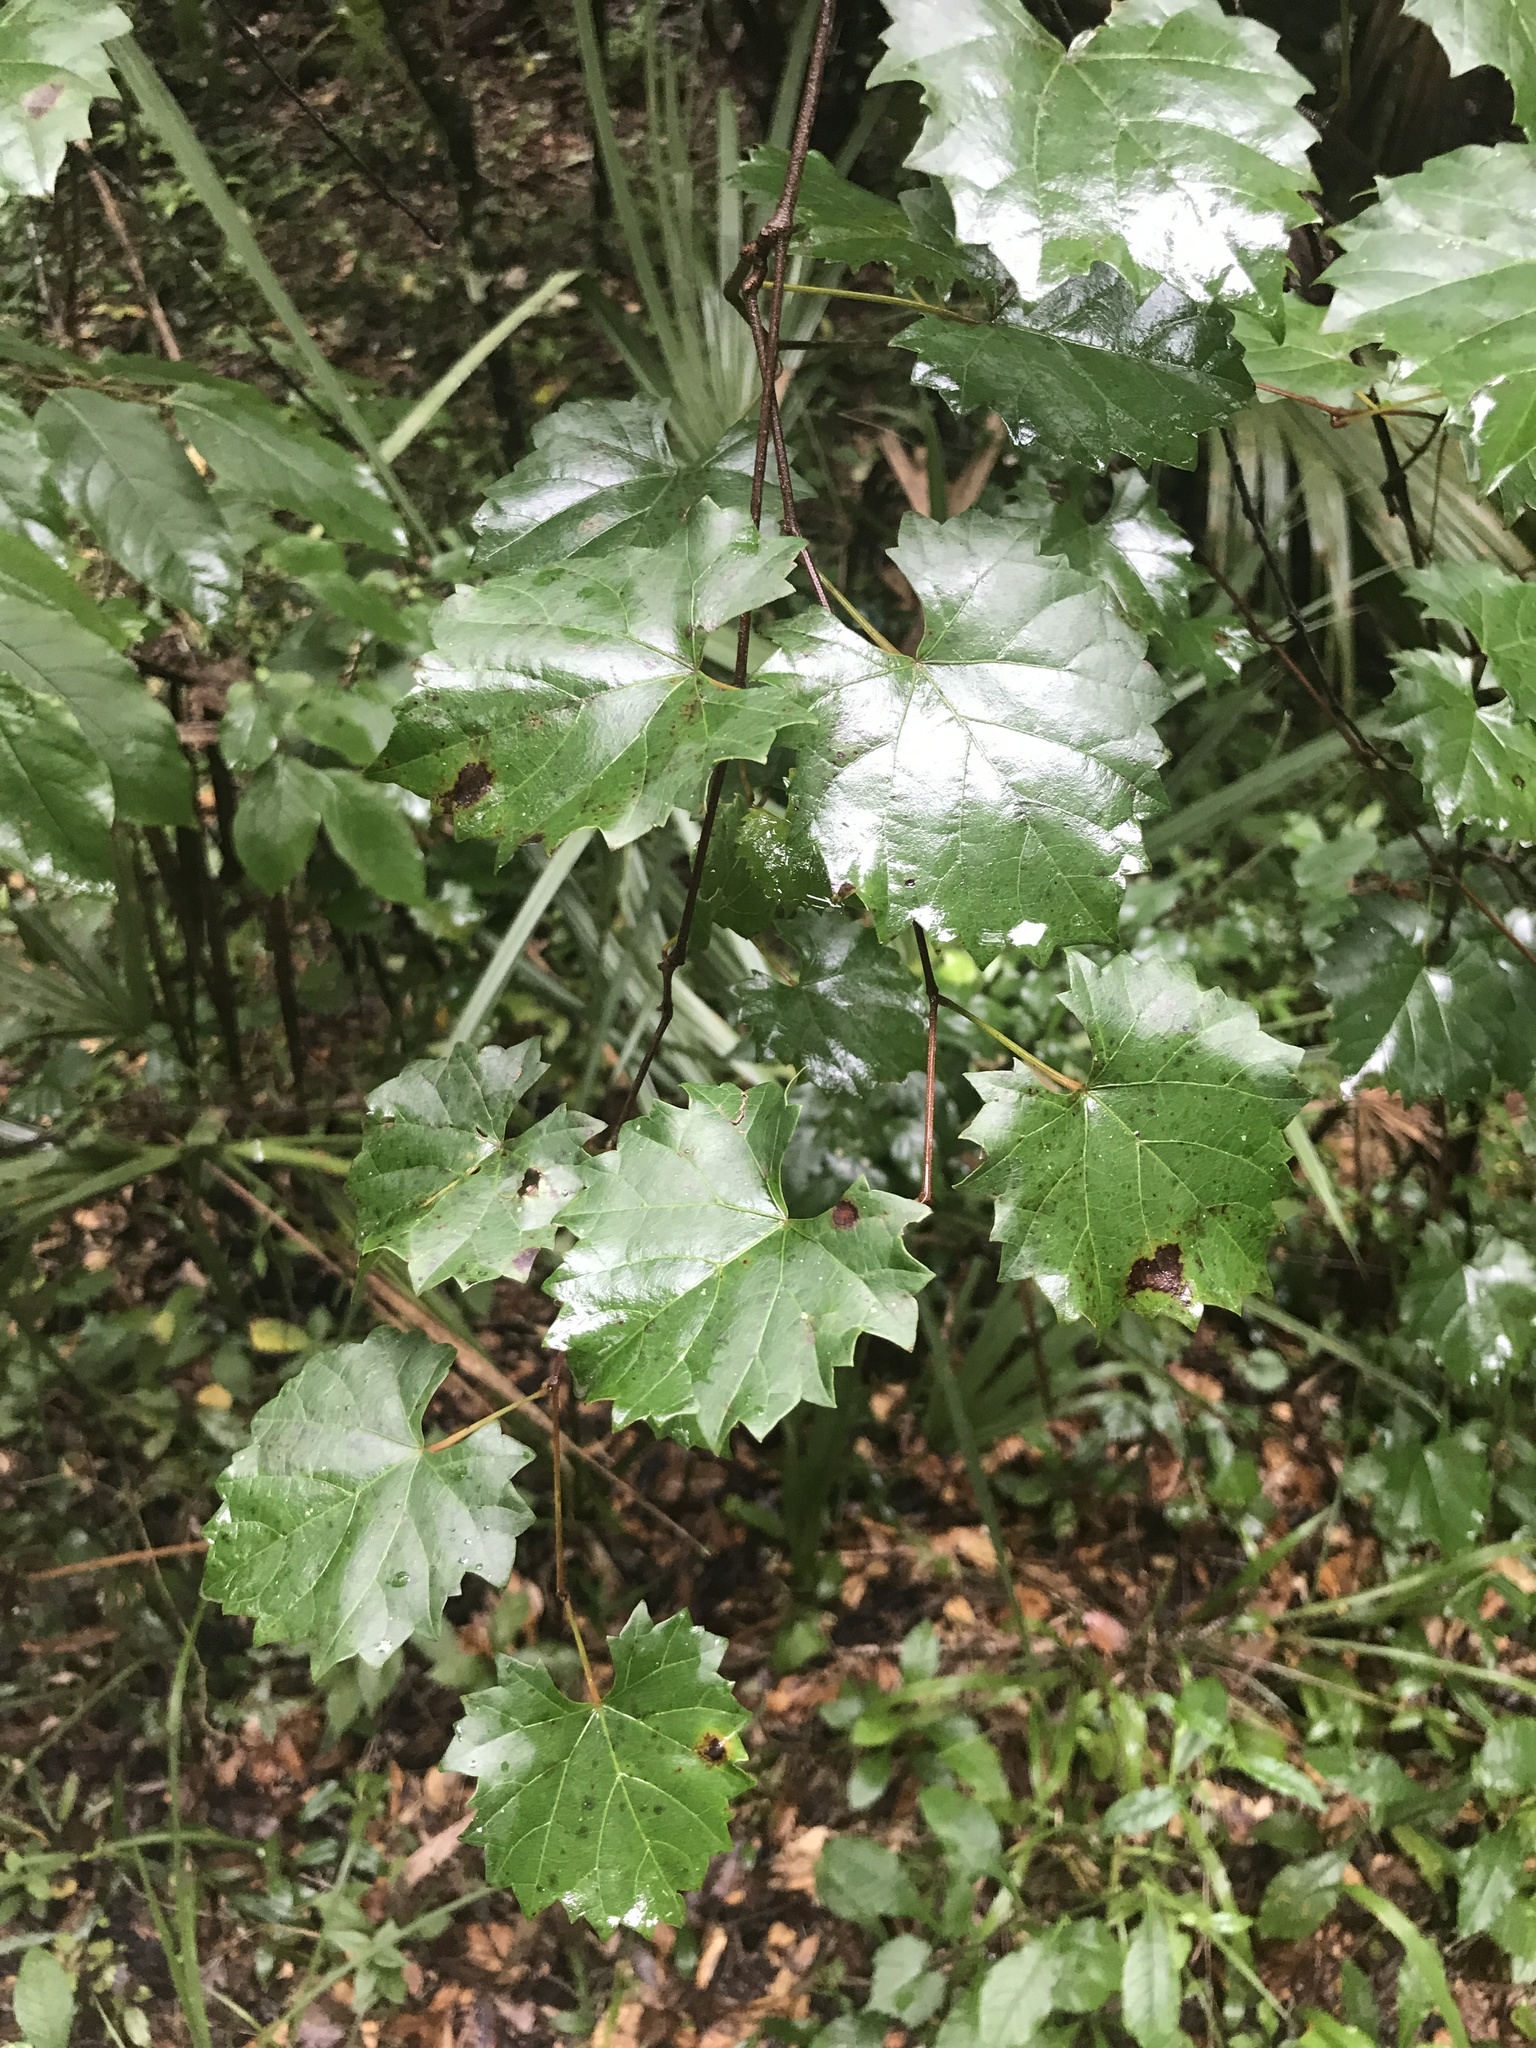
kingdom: Plantae
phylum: Tracheophyta
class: Magnoliopsida
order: Vitales
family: Vitaceae
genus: Vitis
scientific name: Vitis rotundifolia
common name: Muscadine grape
